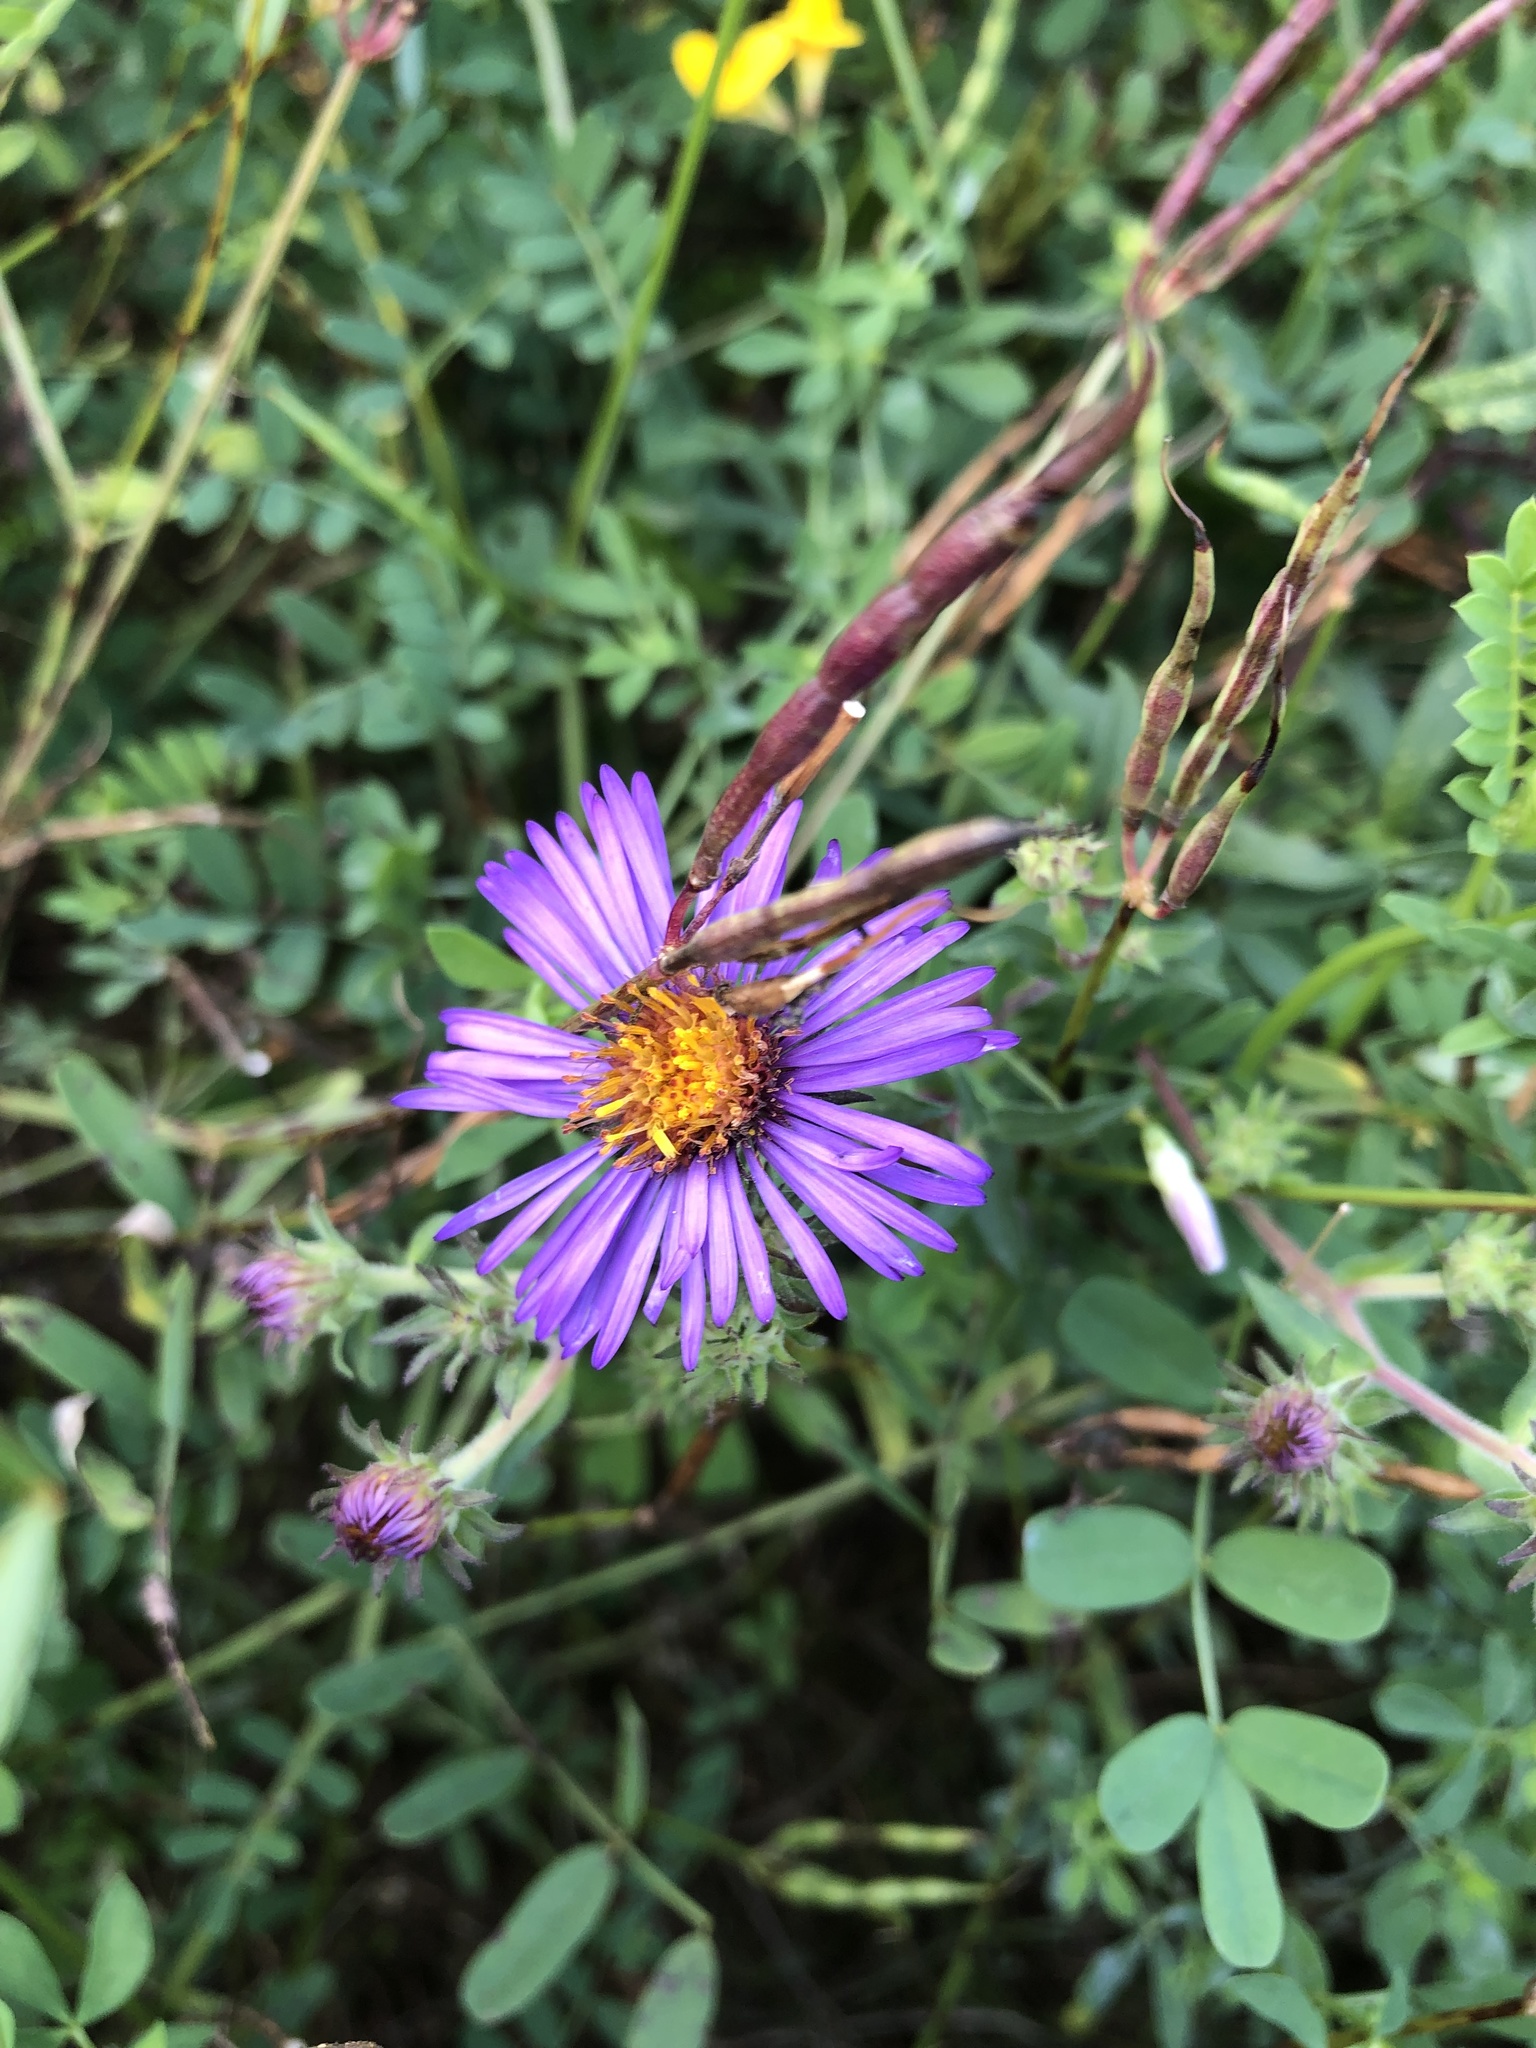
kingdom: Plantae
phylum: Tracheophyta
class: Magnoliopsida
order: Asterales
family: Asteraceae
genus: Symphyotrichum
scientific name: Symphyotrichum novae-angliae
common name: Michaelmas daisy
